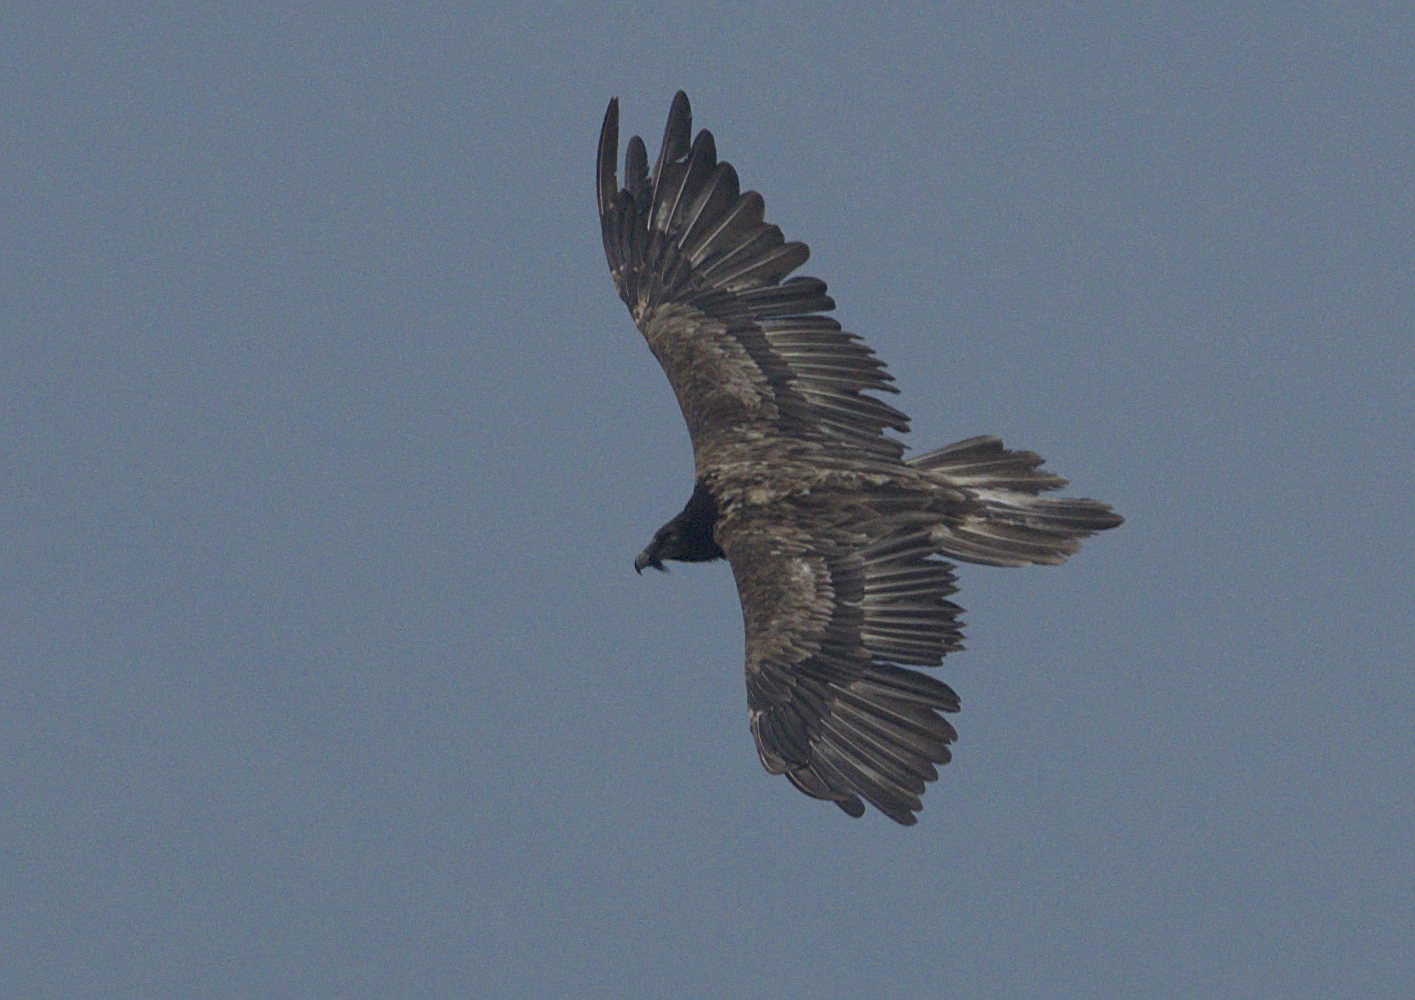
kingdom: Animalia
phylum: Chordata
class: Aves
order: Accipitriformes
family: Accipitridae
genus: Gypaetus
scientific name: Gypaetus barbatus
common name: Bearded vulture
